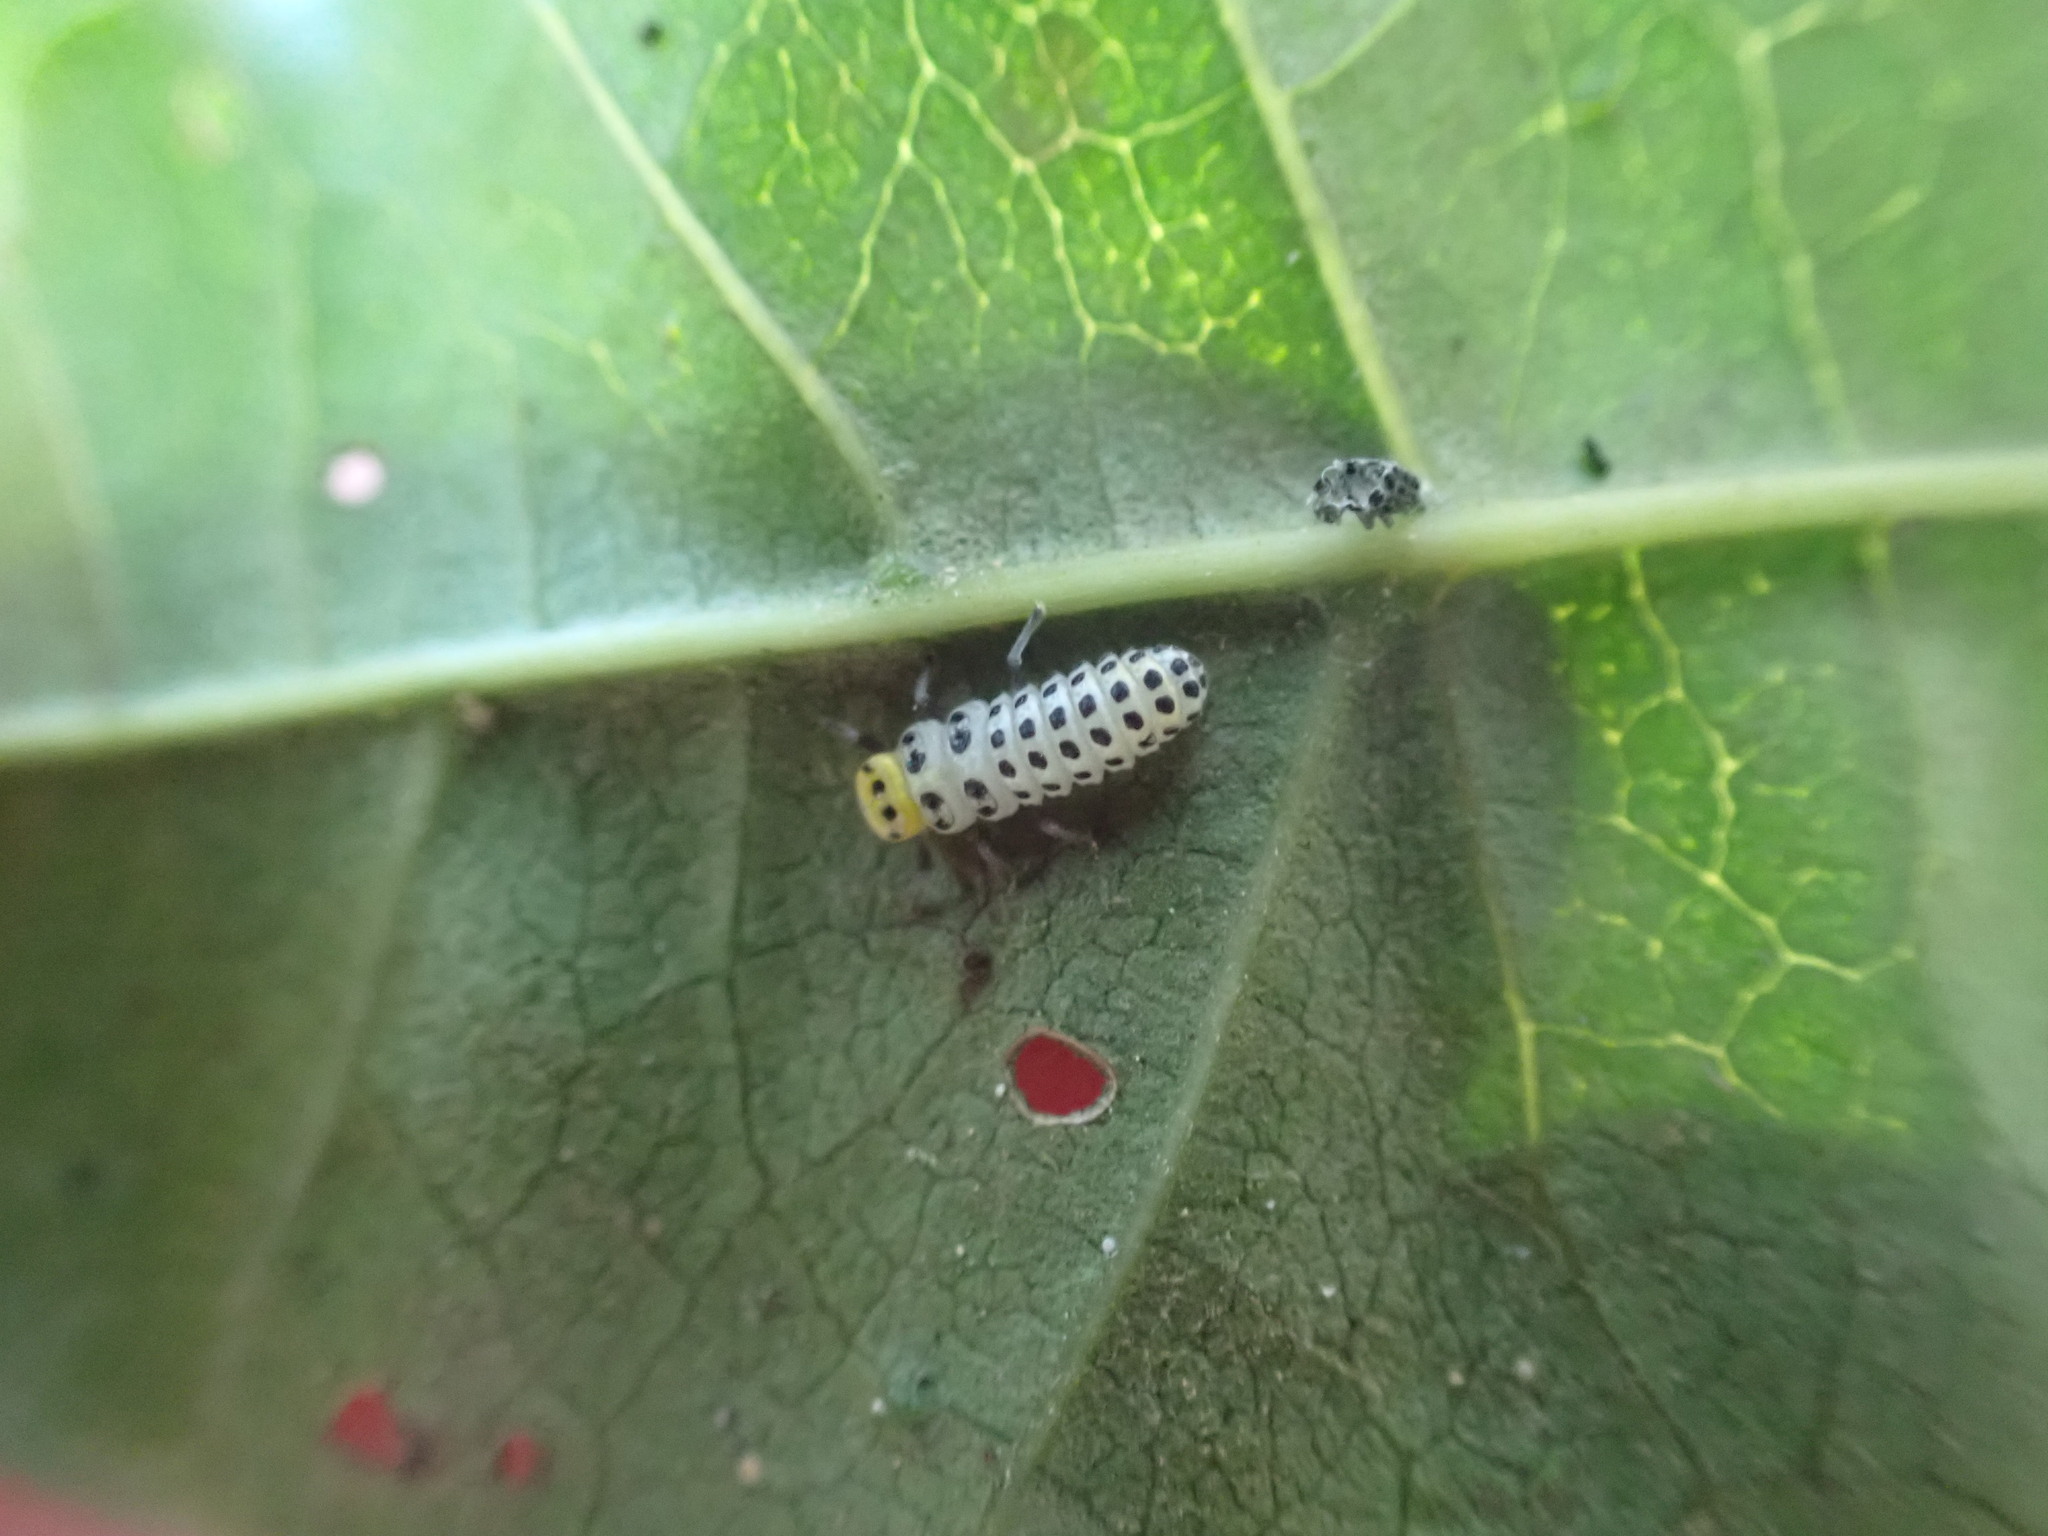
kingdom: Animalia
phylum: Arthropoda
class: Insecta
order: Coleoptera
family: Coccinellidae
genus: Illeis
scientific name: Illeis galbula
